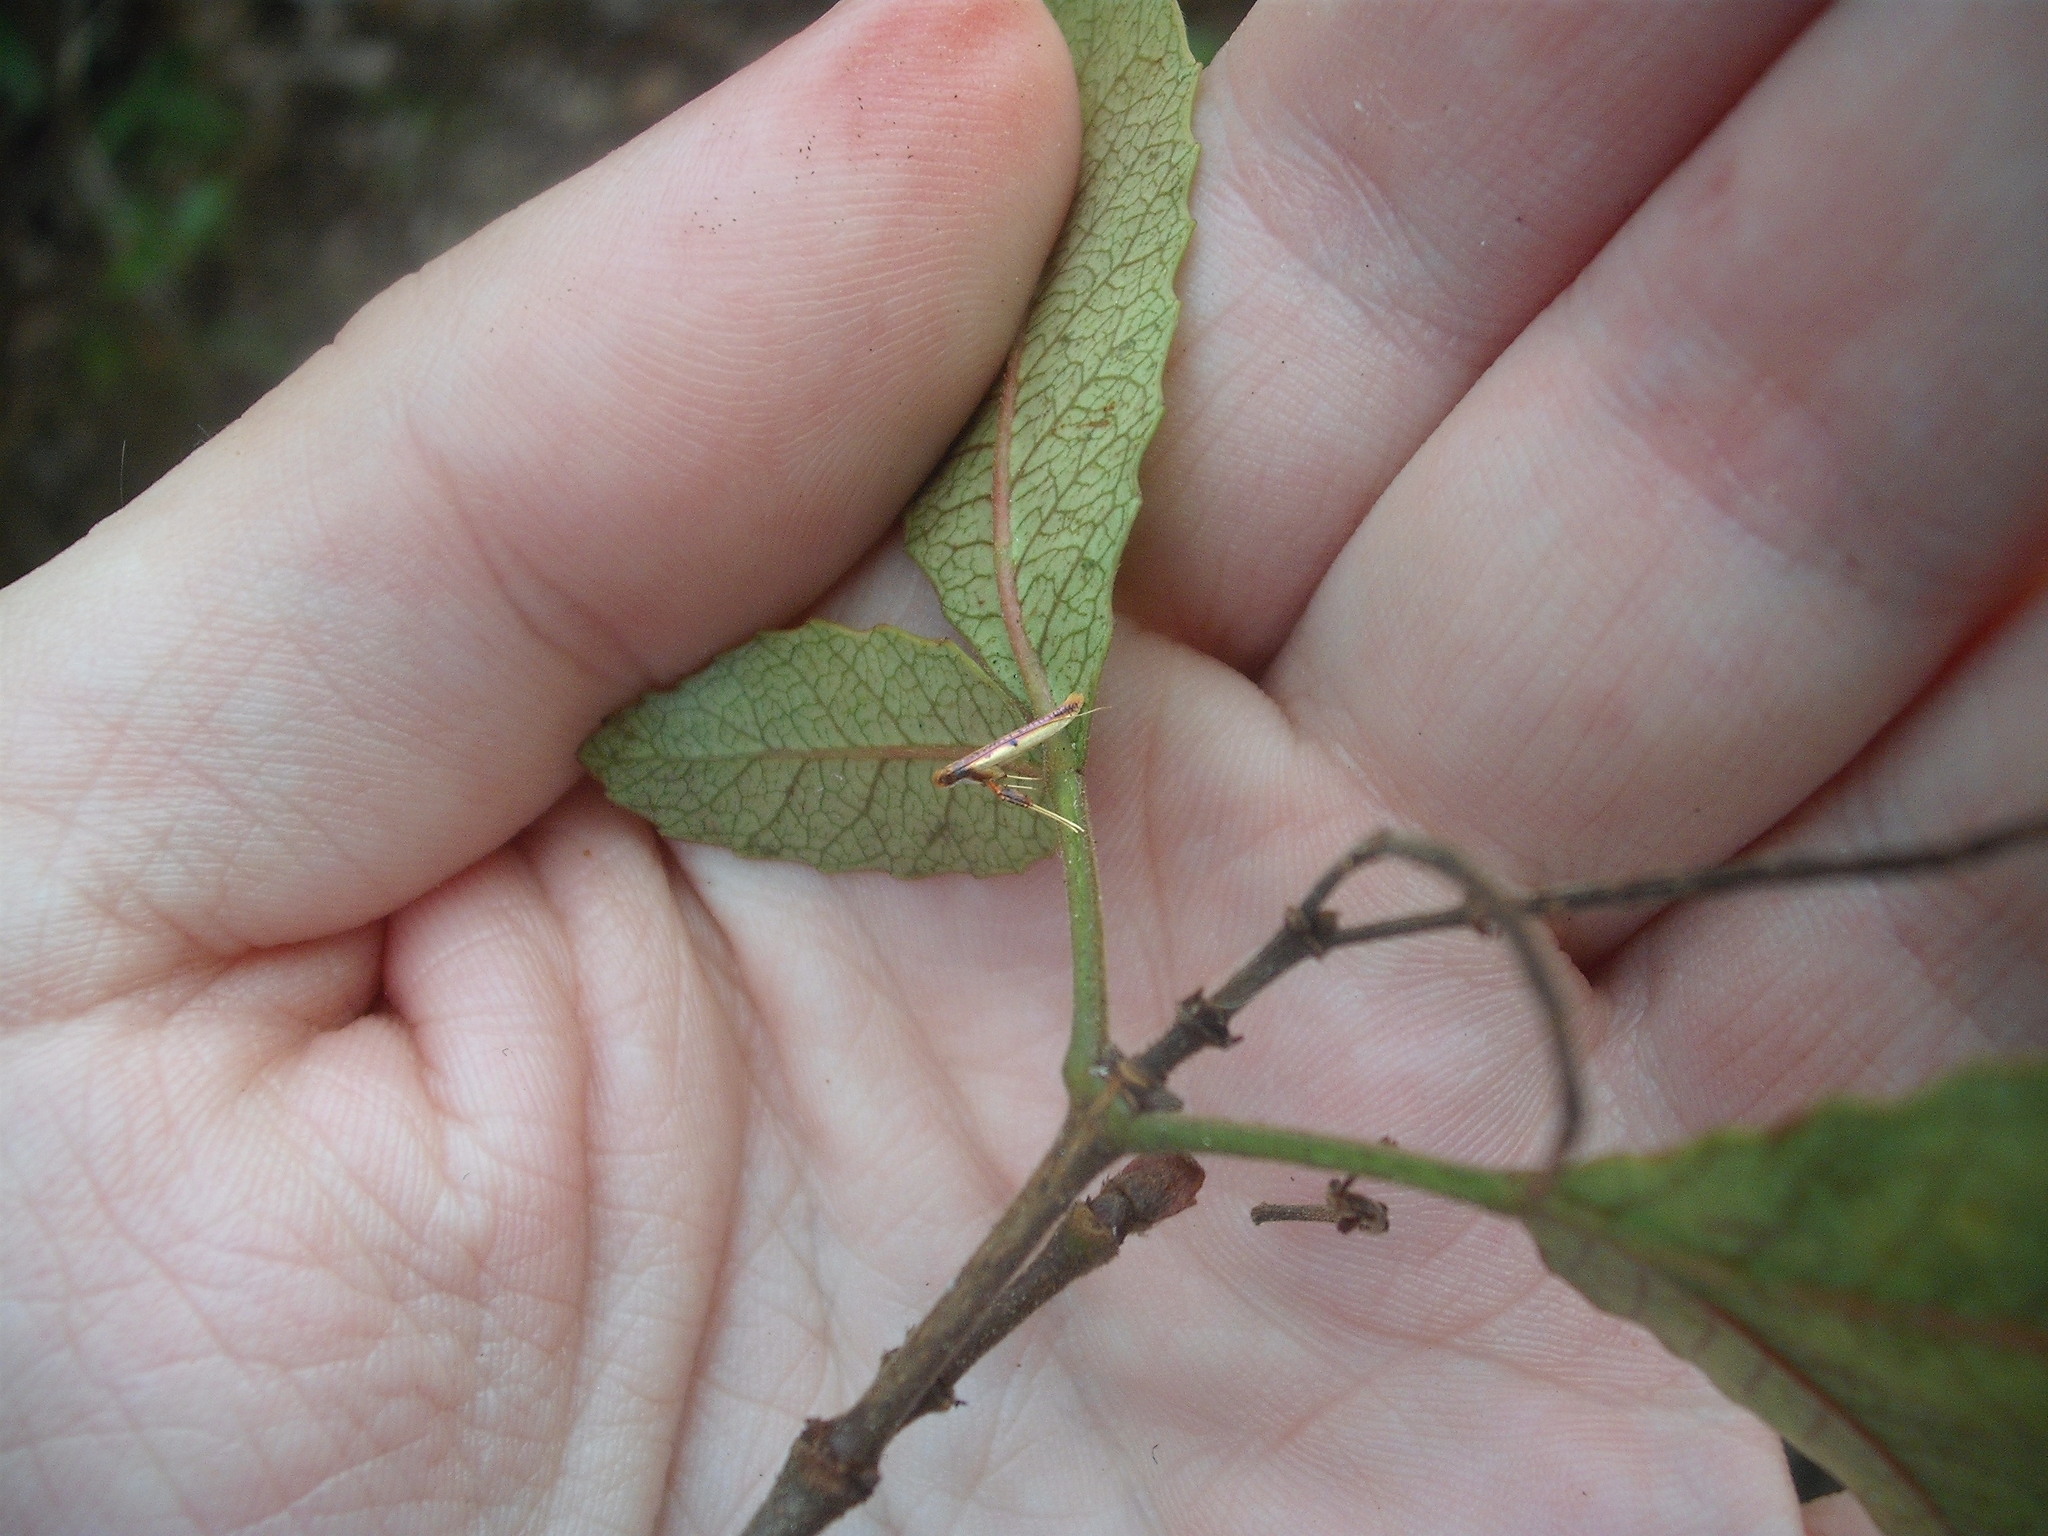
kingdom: Animalia
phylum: Arthropoda
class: Insecta
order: Lepidoptera
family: Gracillariidae
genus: Caloptilia
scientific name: Caloptilia chrysitis
